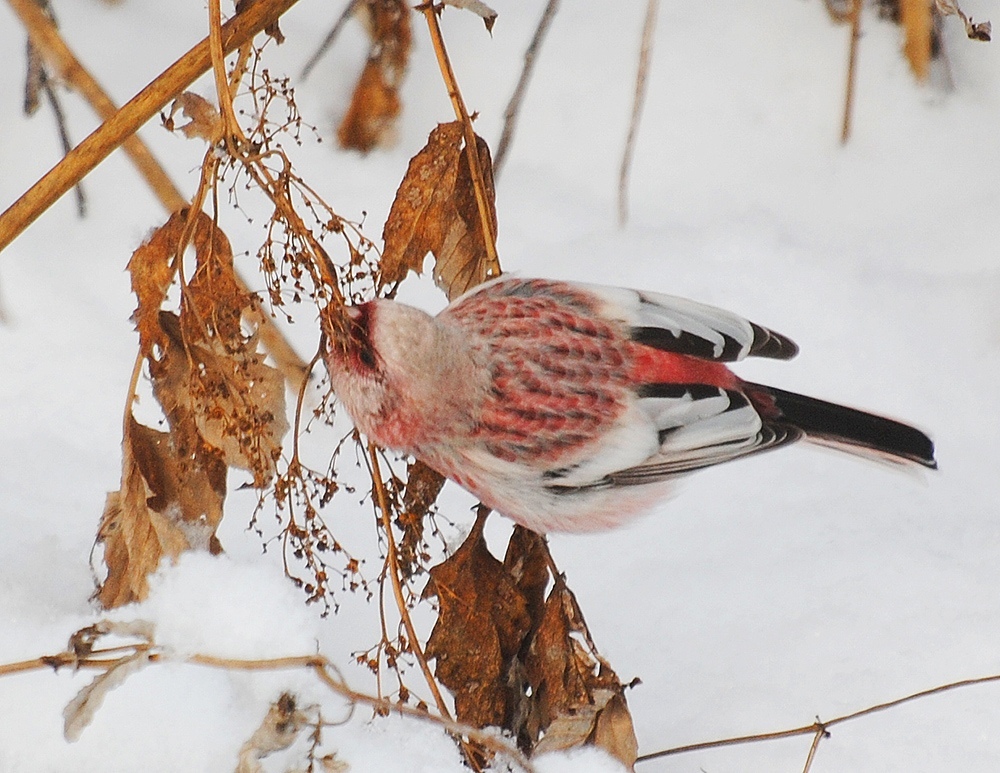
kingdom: Animalia
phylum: Chordata
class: Aves
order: Passeriformes
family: Fringillidae
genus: Carpodacus
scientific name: Carpodacus sibiricus
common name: Long-tailed rosefinch
